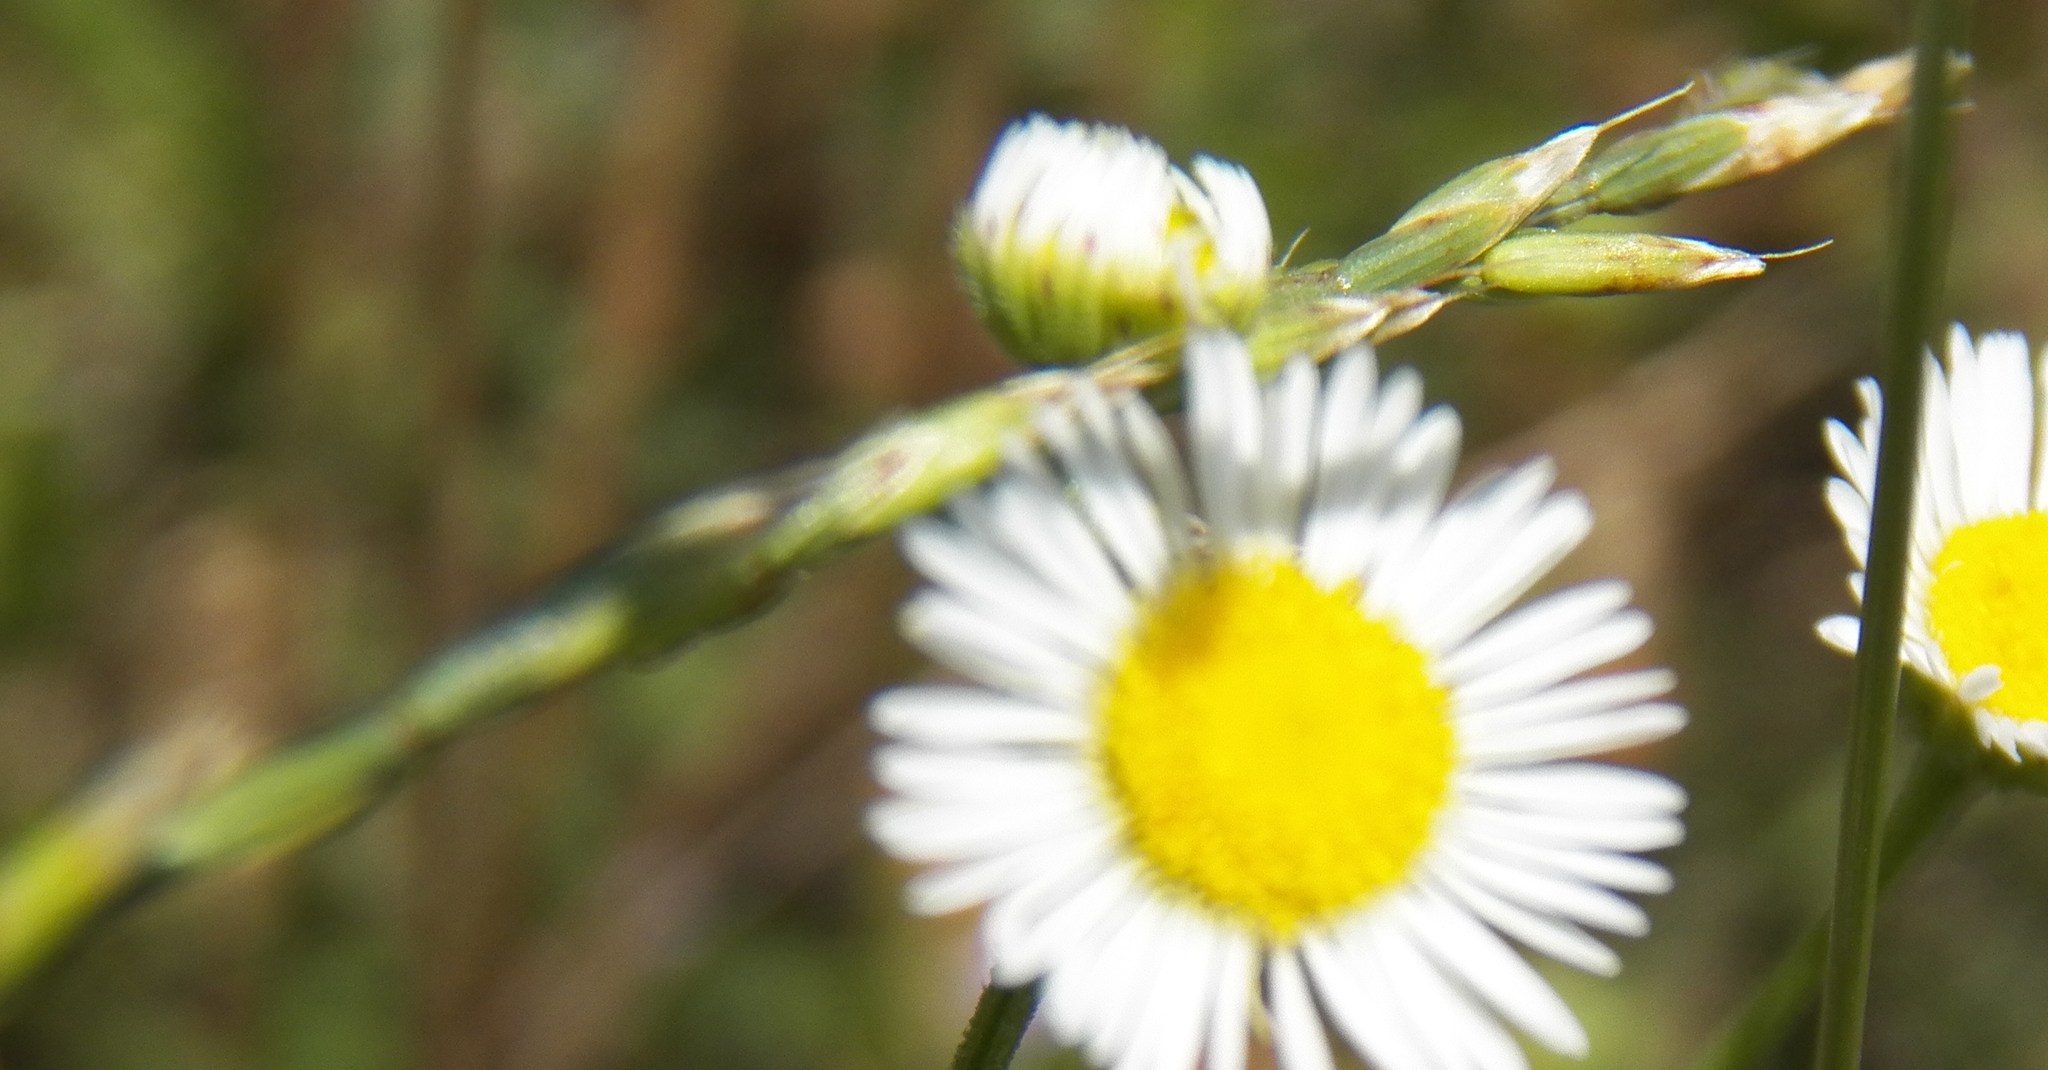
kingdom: Plantae
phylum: Tracheophyta
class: Liliopsida
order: Poales
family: Poaceae
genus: Lolium
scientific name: Lolium perenne
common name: Perennial ryegrass
